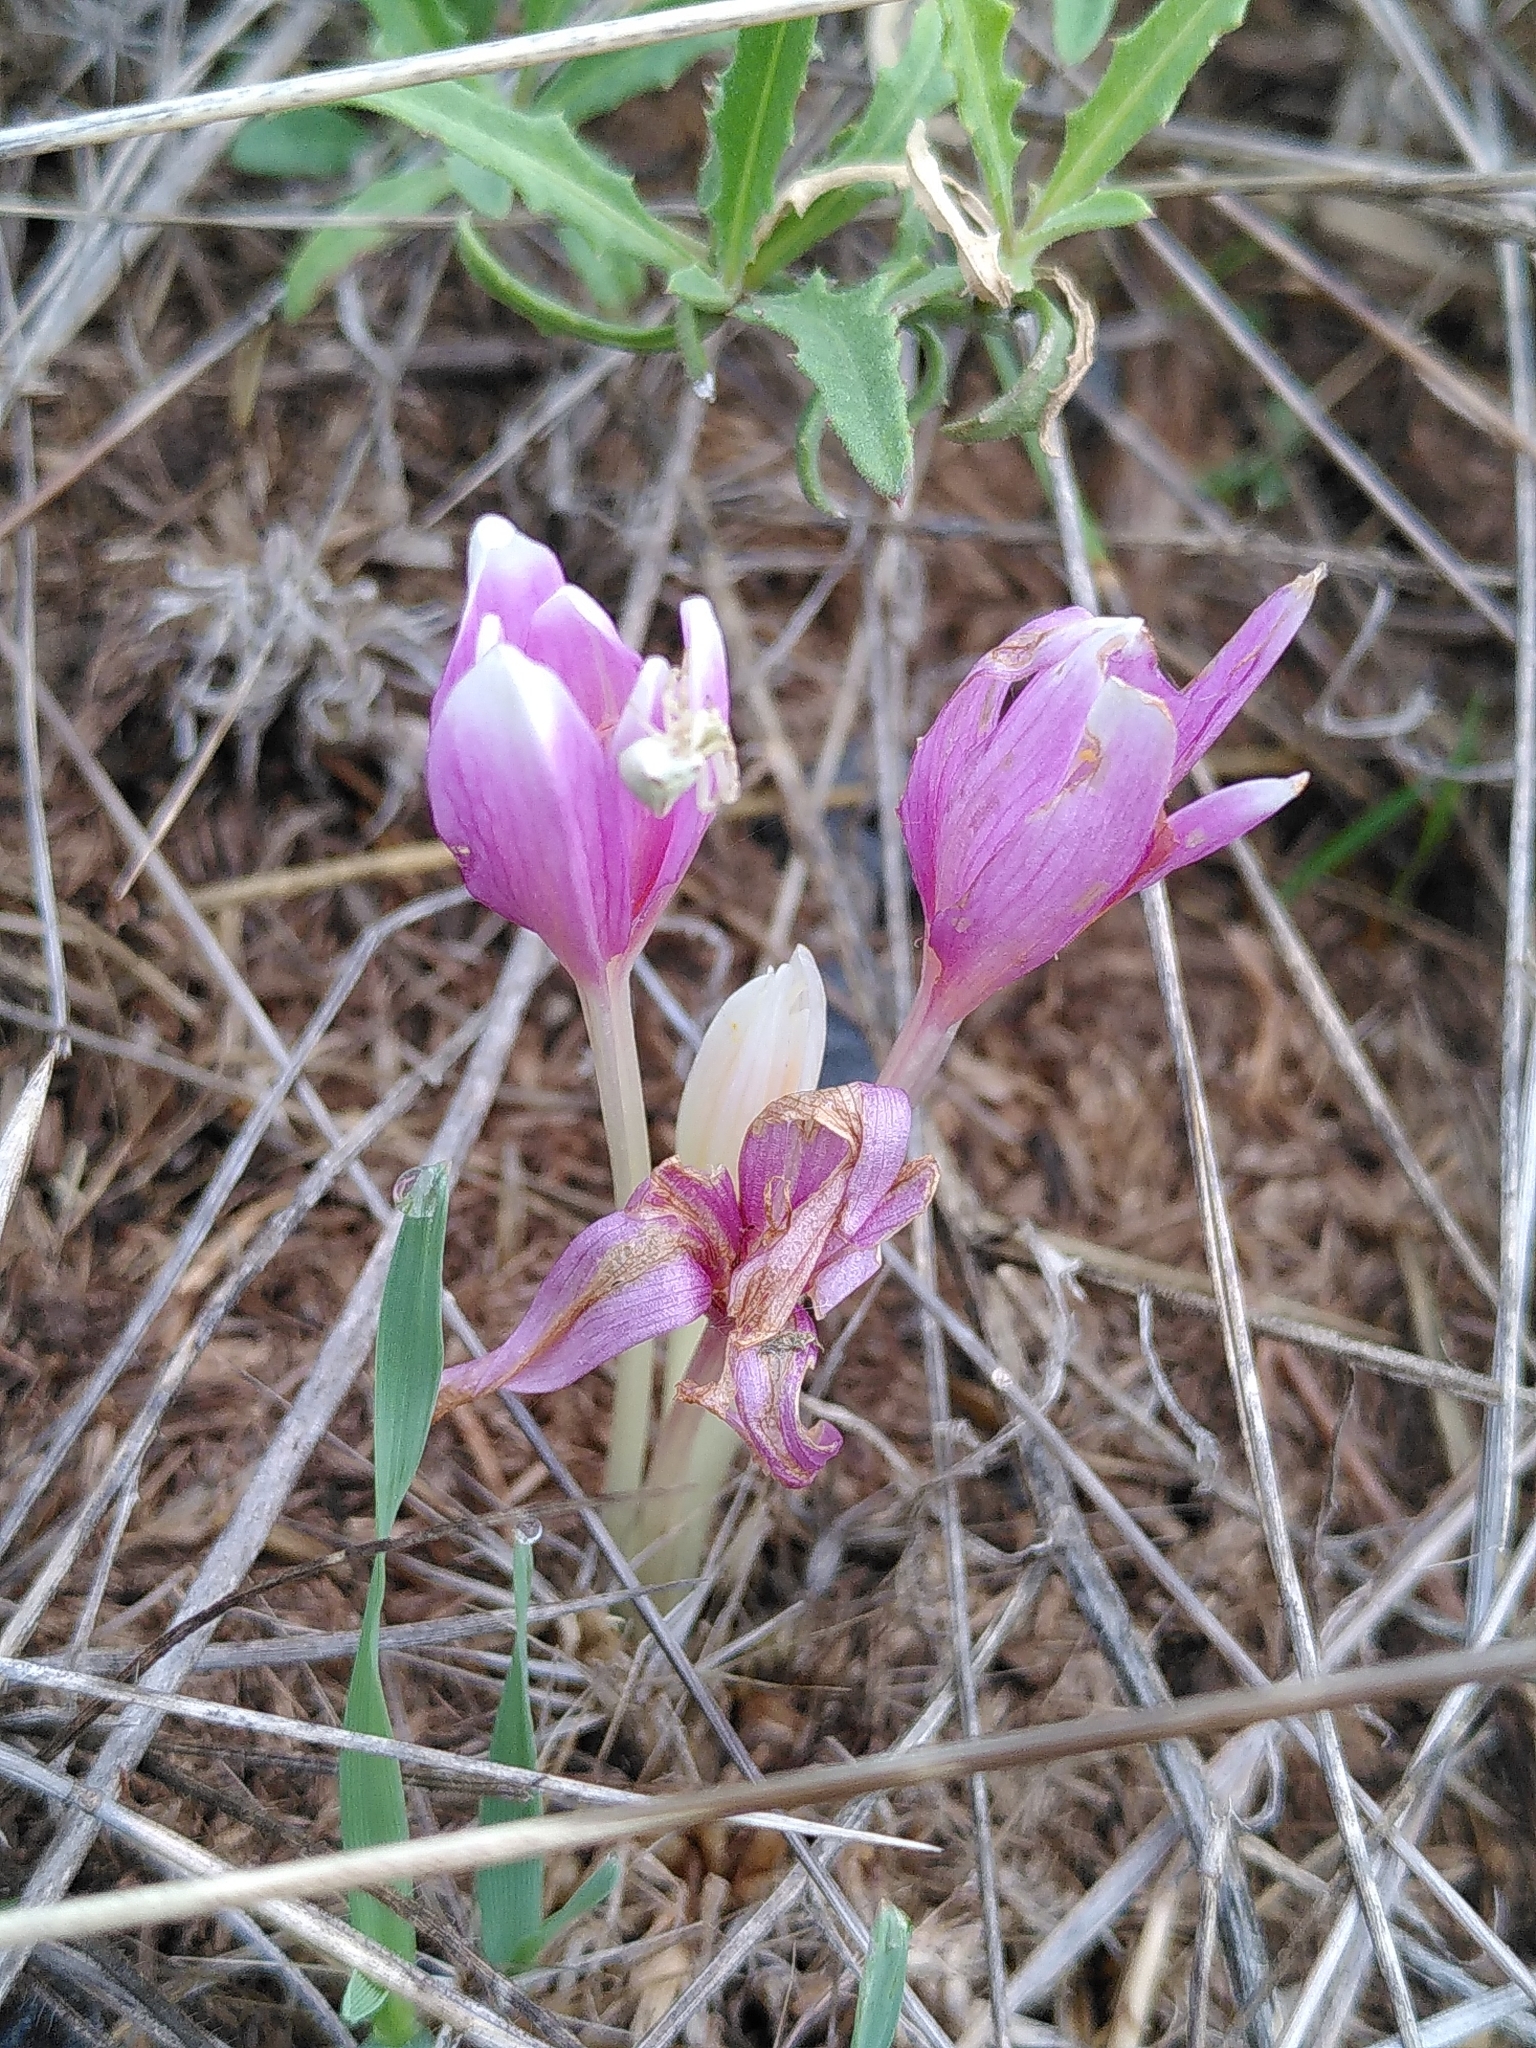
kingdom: Plantae
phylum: Tracheophyta
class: Liliopsida
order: Liliales
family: Colchicaceae
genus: Colchicum
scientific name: Colchicum autumnale
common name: Autumn crocus
